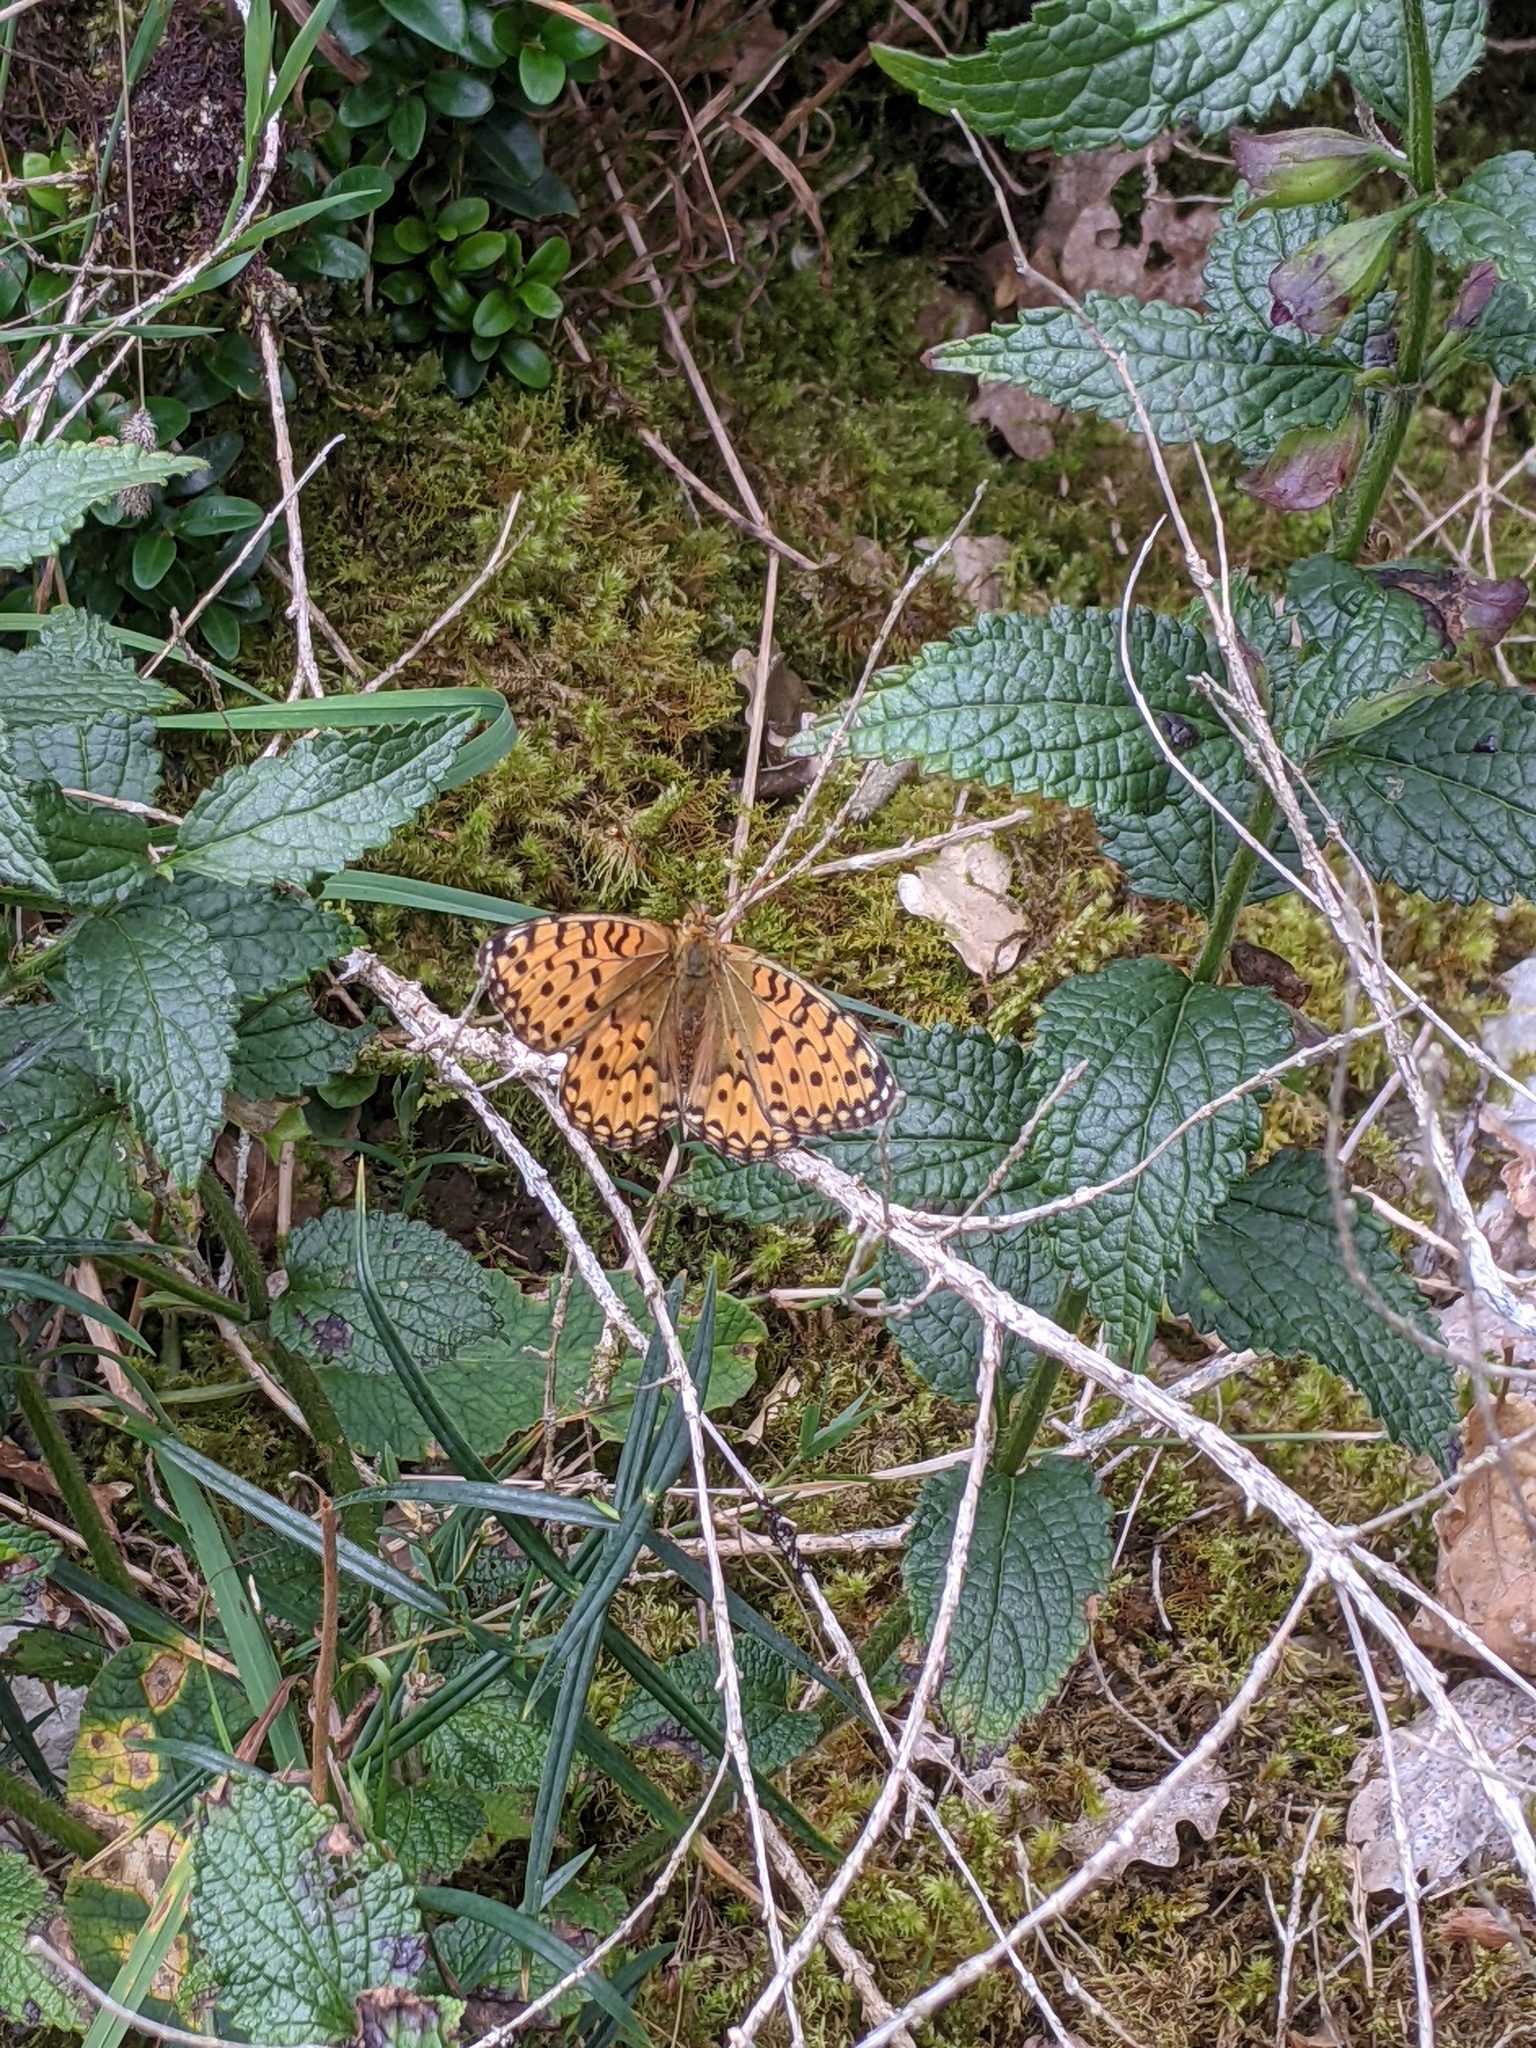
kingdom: Animalia
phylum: Arthropoda
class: Insecta
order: Lepidoptera
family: Nymphalidae
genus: Speyeria
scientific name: Speyeria aglaja
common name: Dark green fritillary
